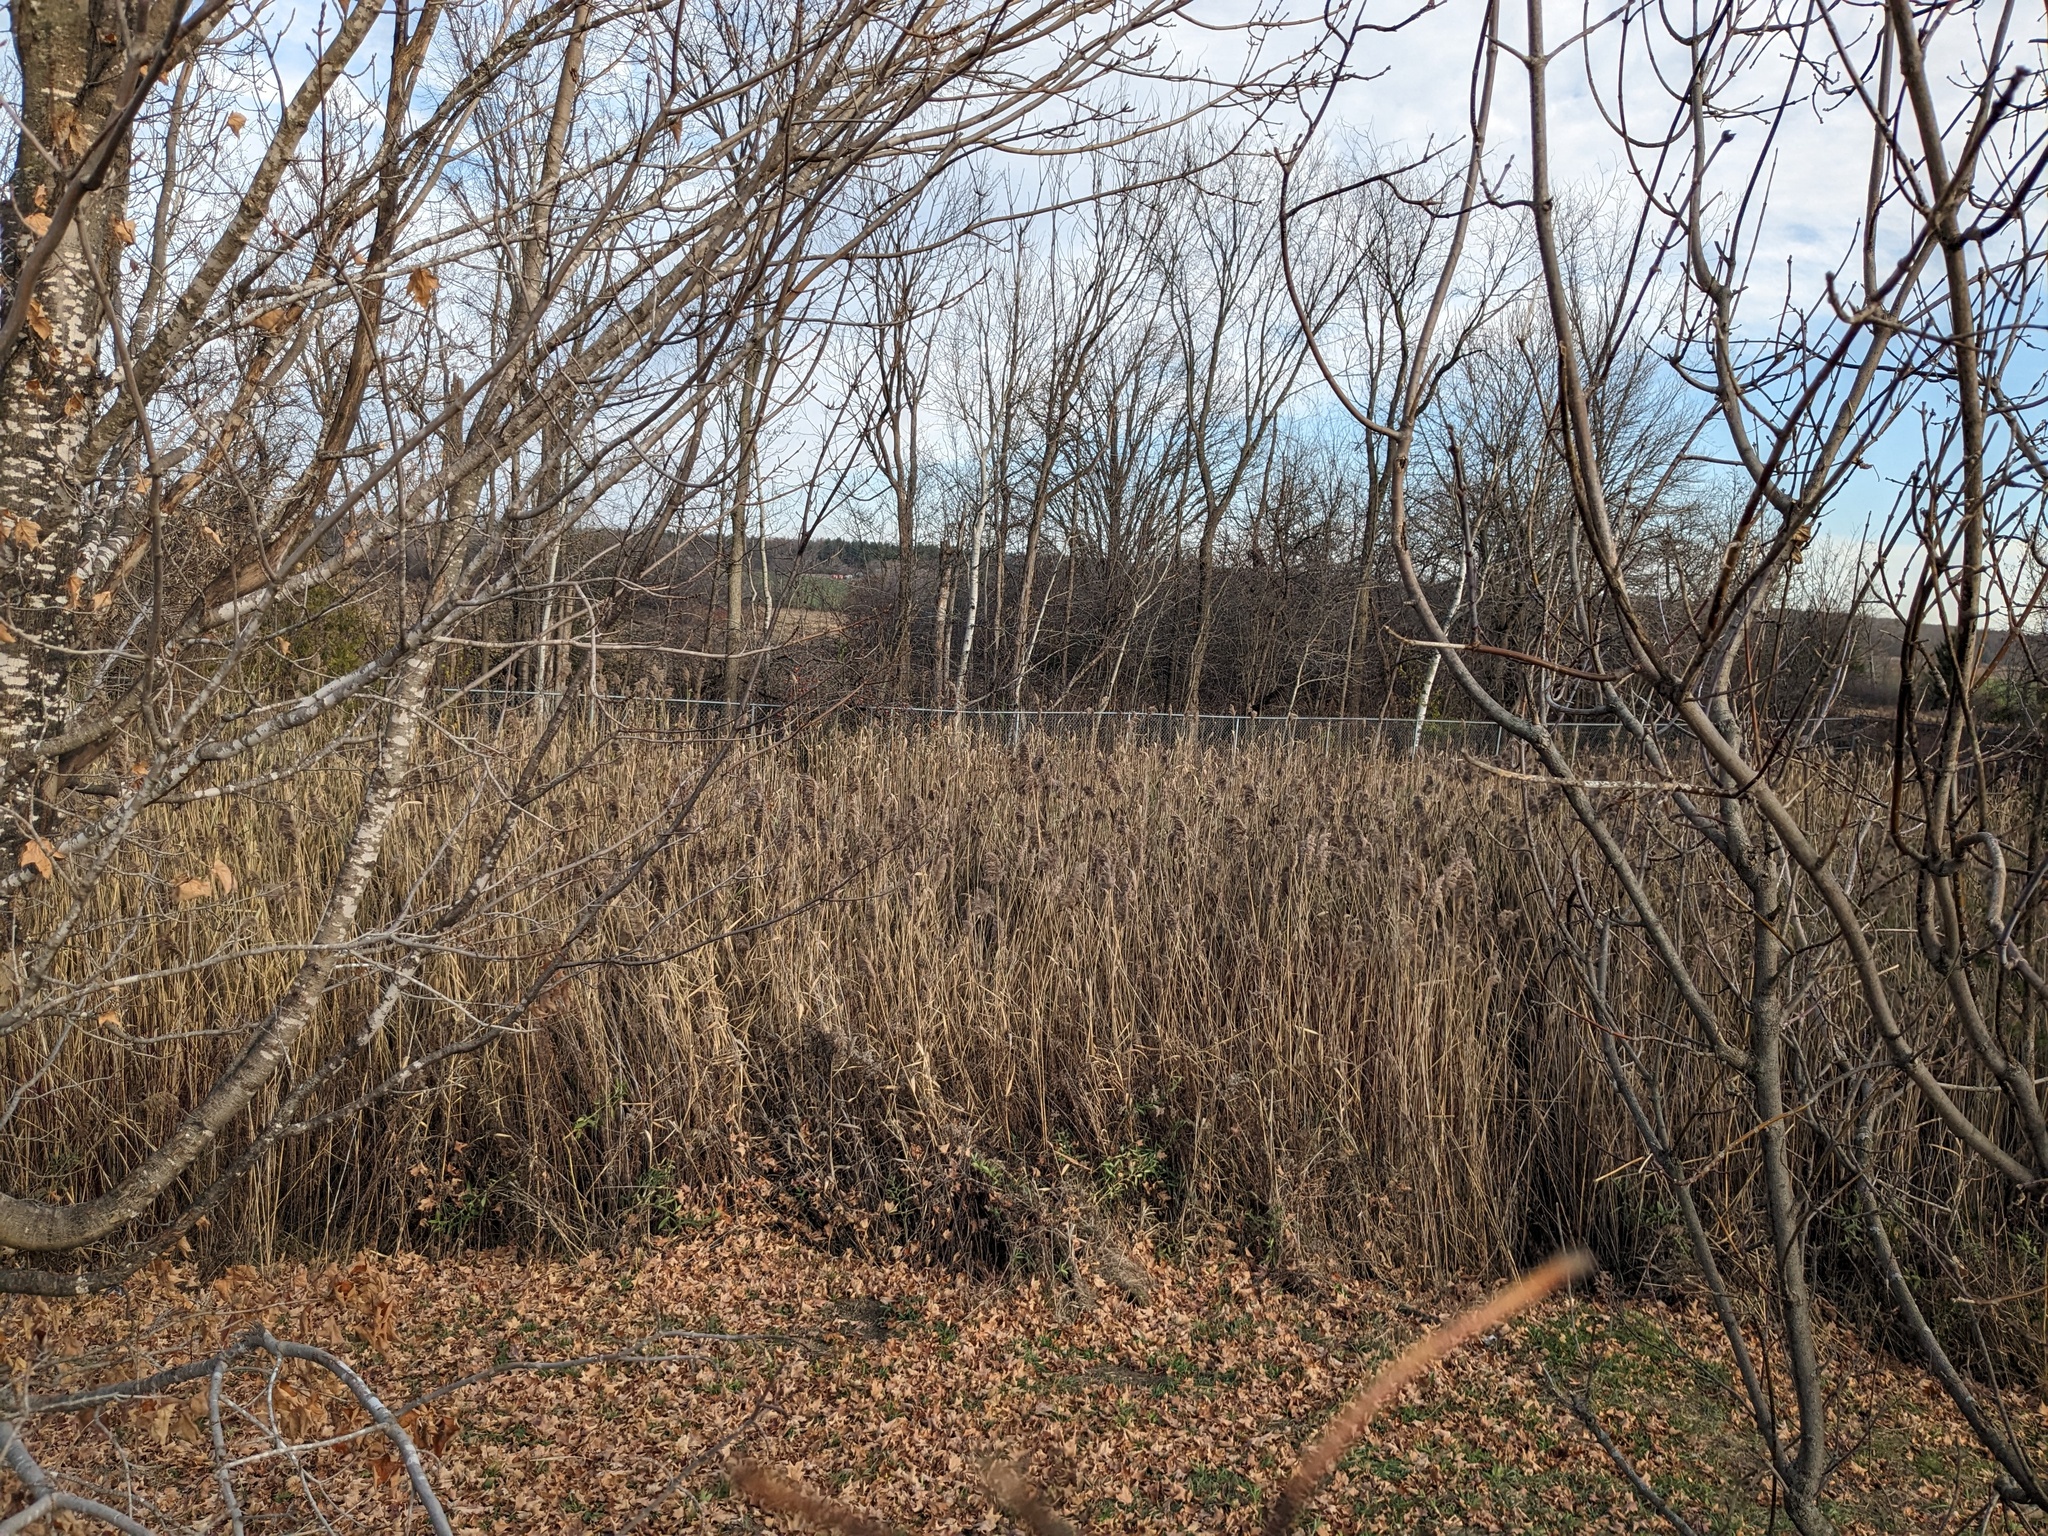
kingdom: Plantae
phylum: Tracheophyta
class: Liliopsida
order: Poales
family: Poaceae
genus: Phragmites
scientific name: Phragmites australis
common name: Common reed
